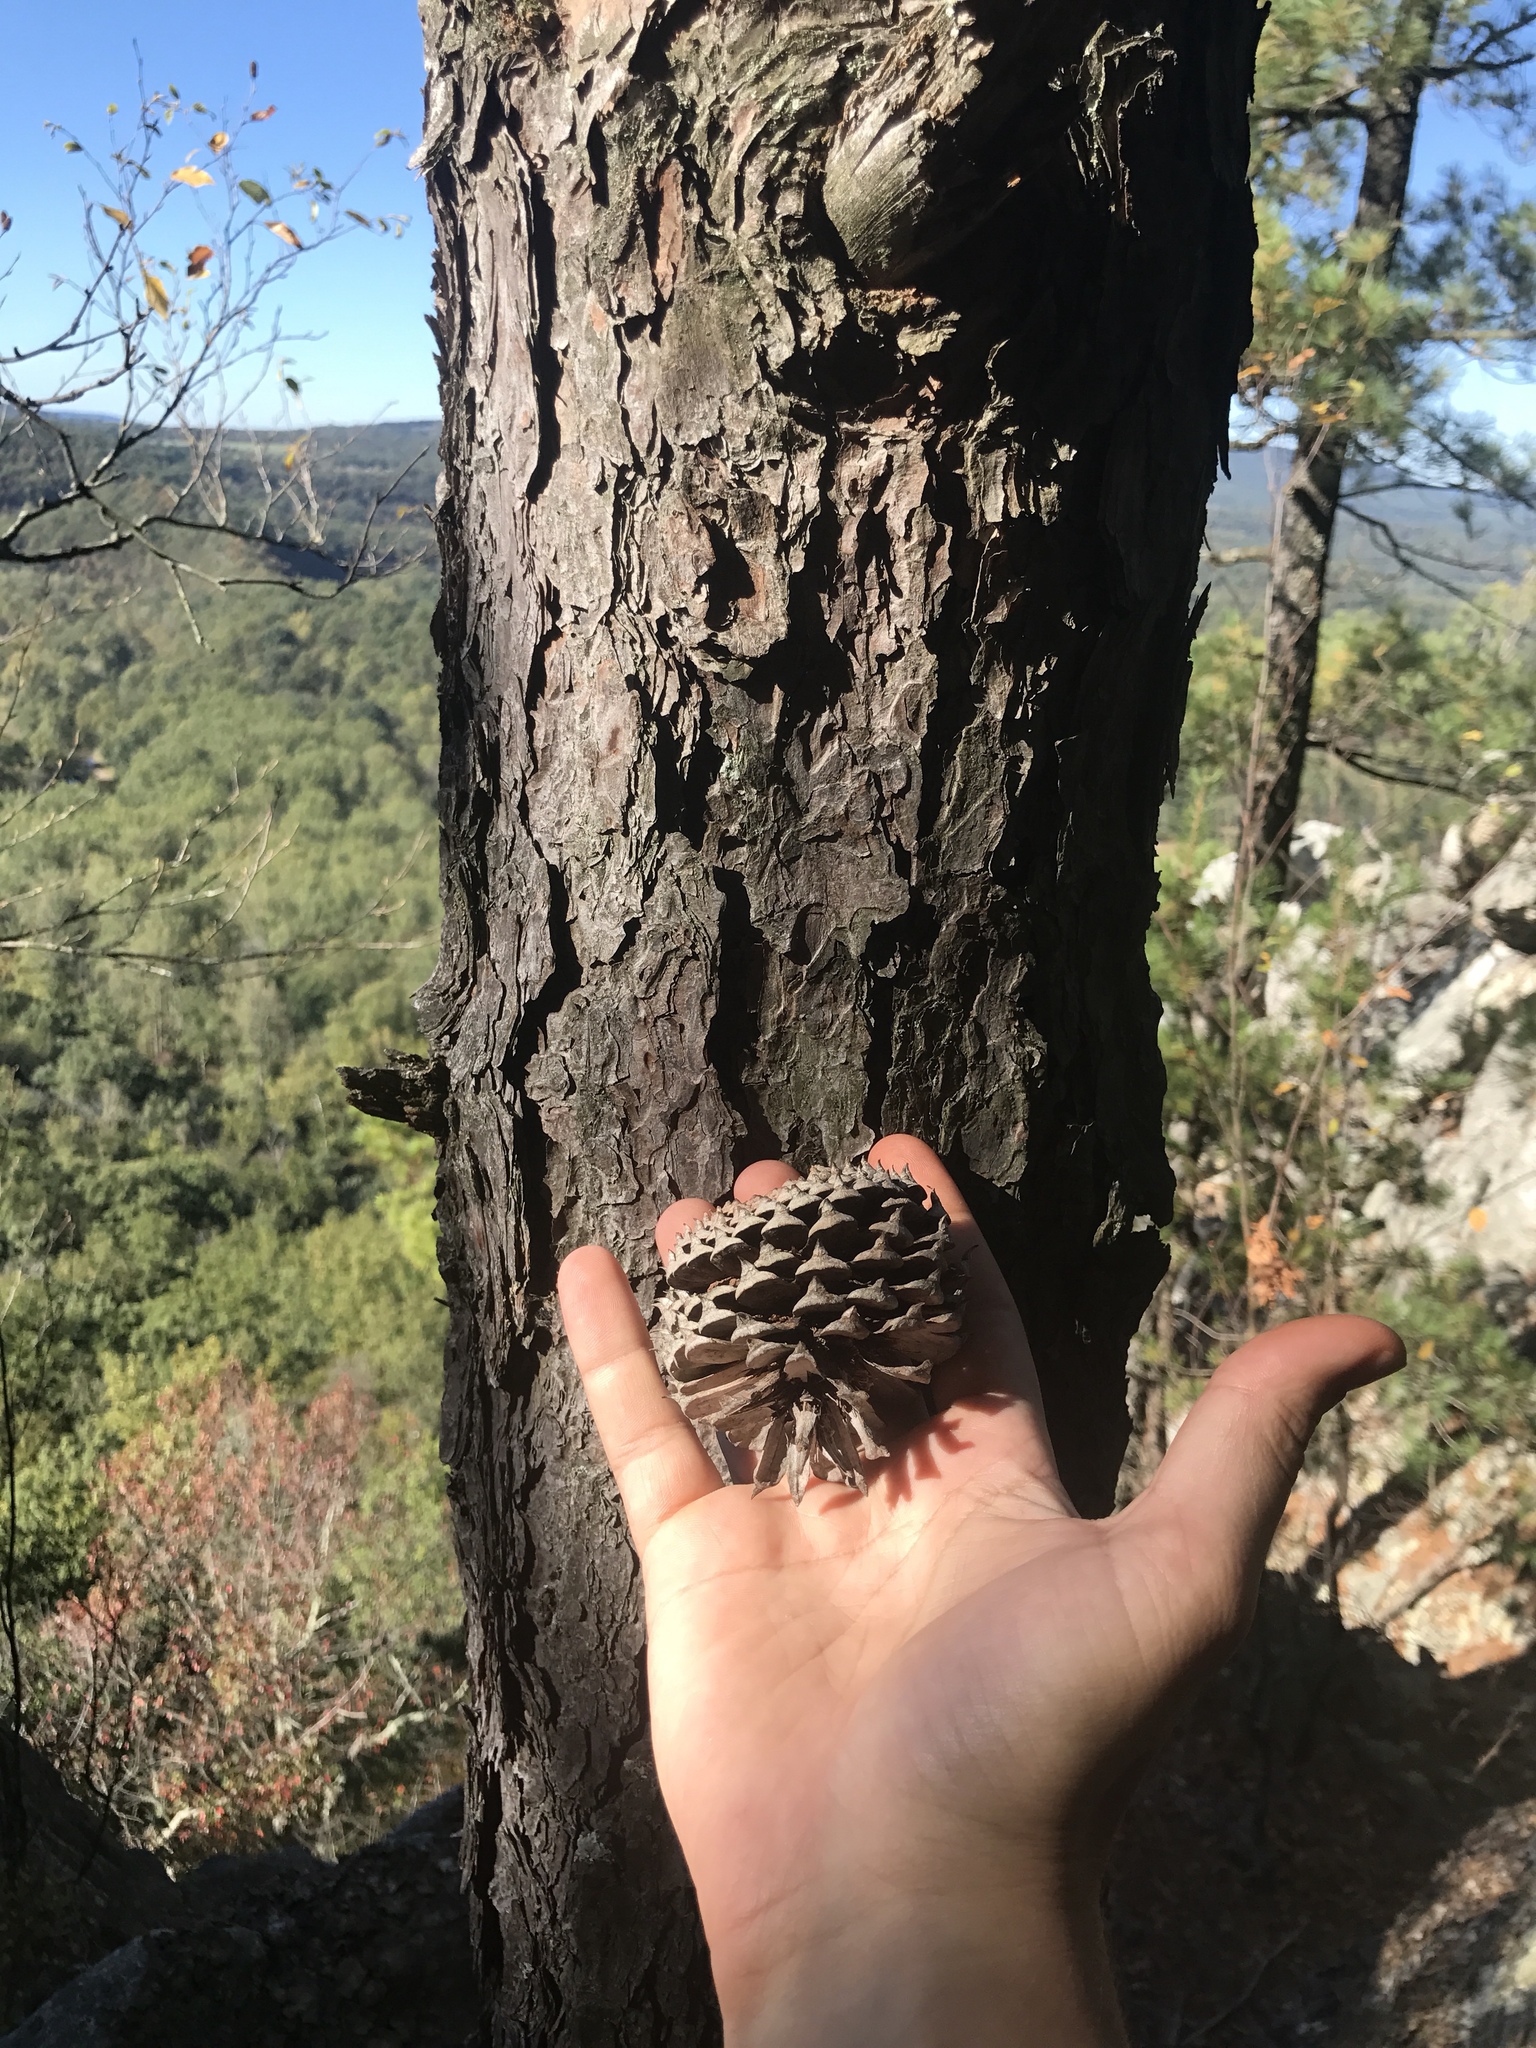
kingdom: Plantae
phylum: Tracheophyta
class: Pinopsida
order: Pinales
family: Pinaceae
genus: Pinus
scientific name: Pinus pungens
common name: Hickory pine
